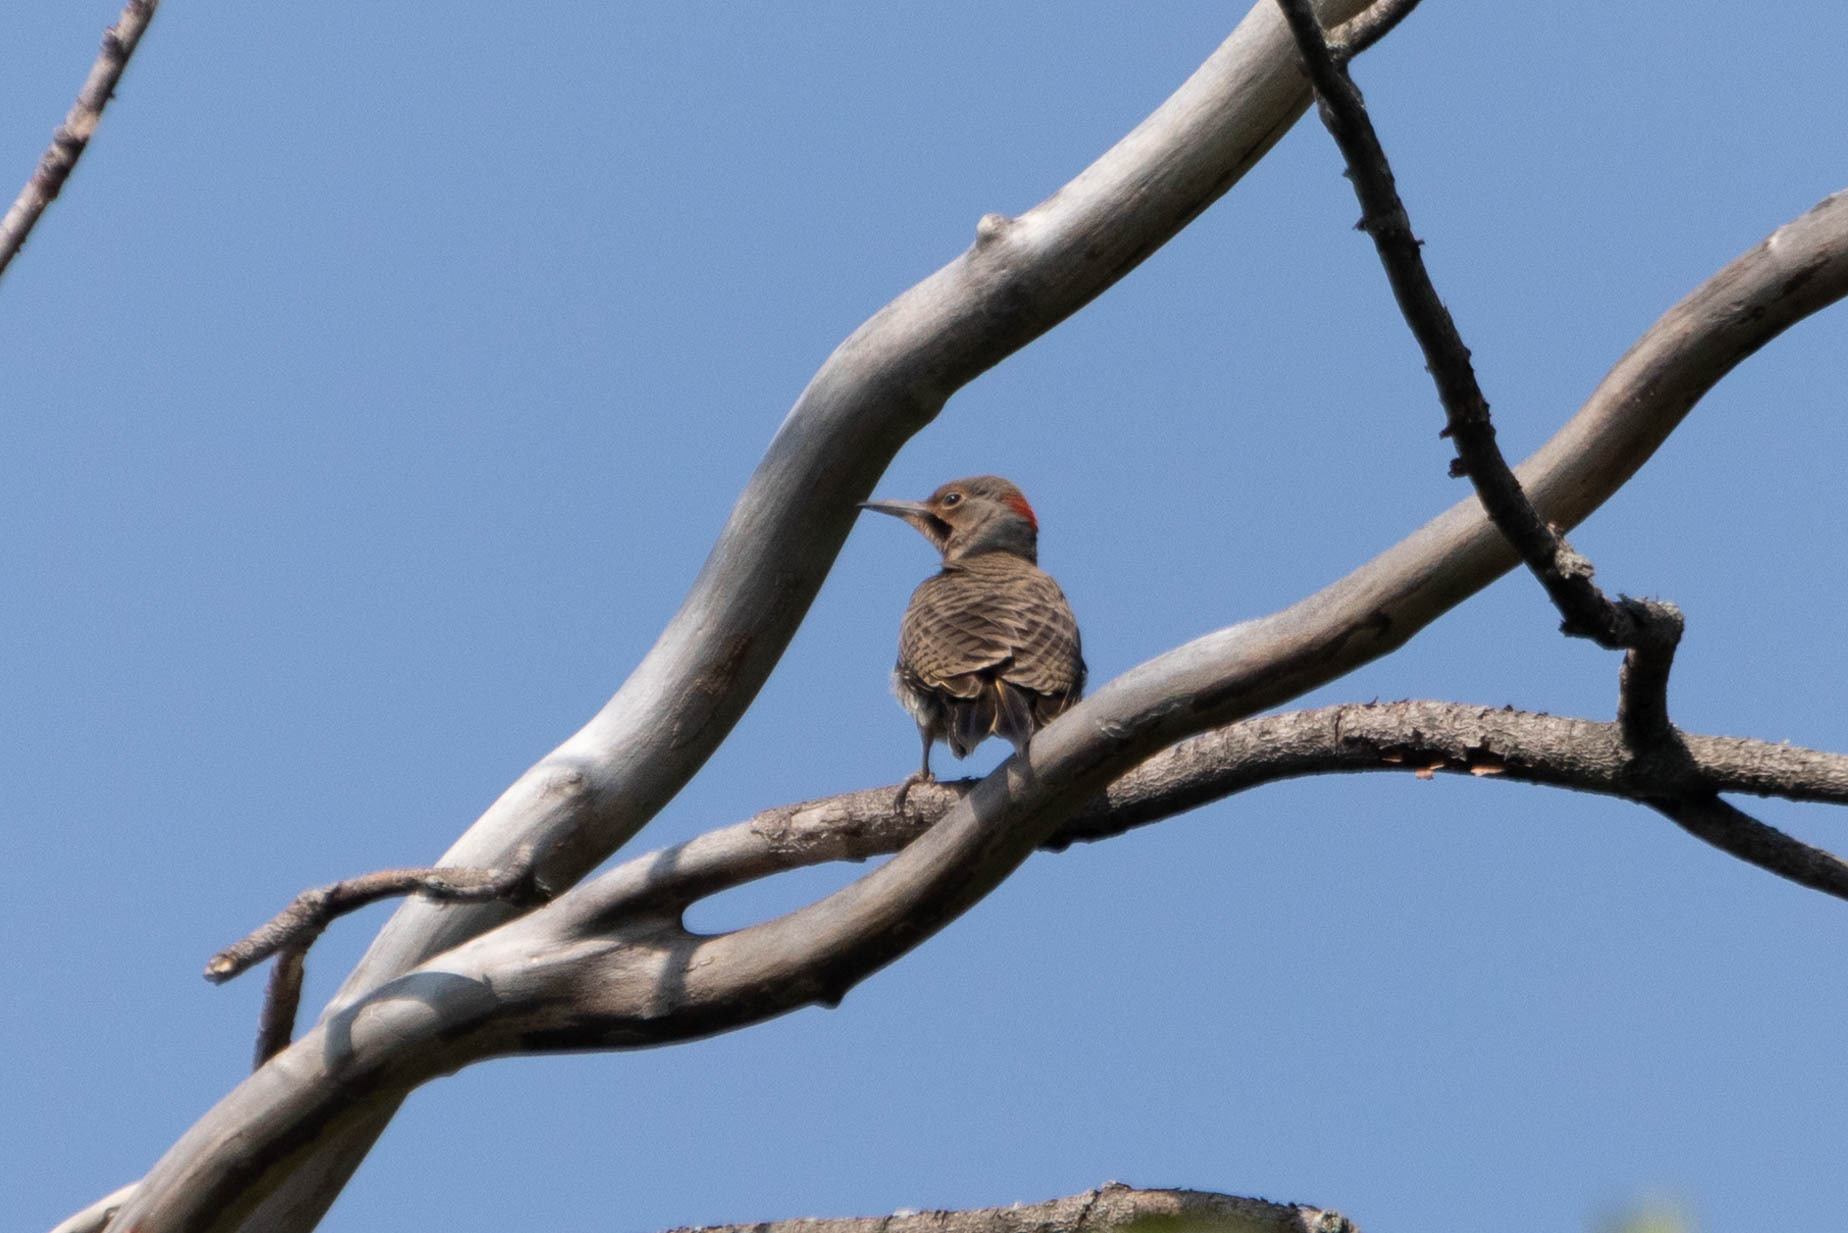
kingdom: Animalia
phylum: Chordata
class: Aves
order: Piciformes
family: Picidae
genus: Colaptes
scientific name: Colaptes auratus
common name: Northern flicker
